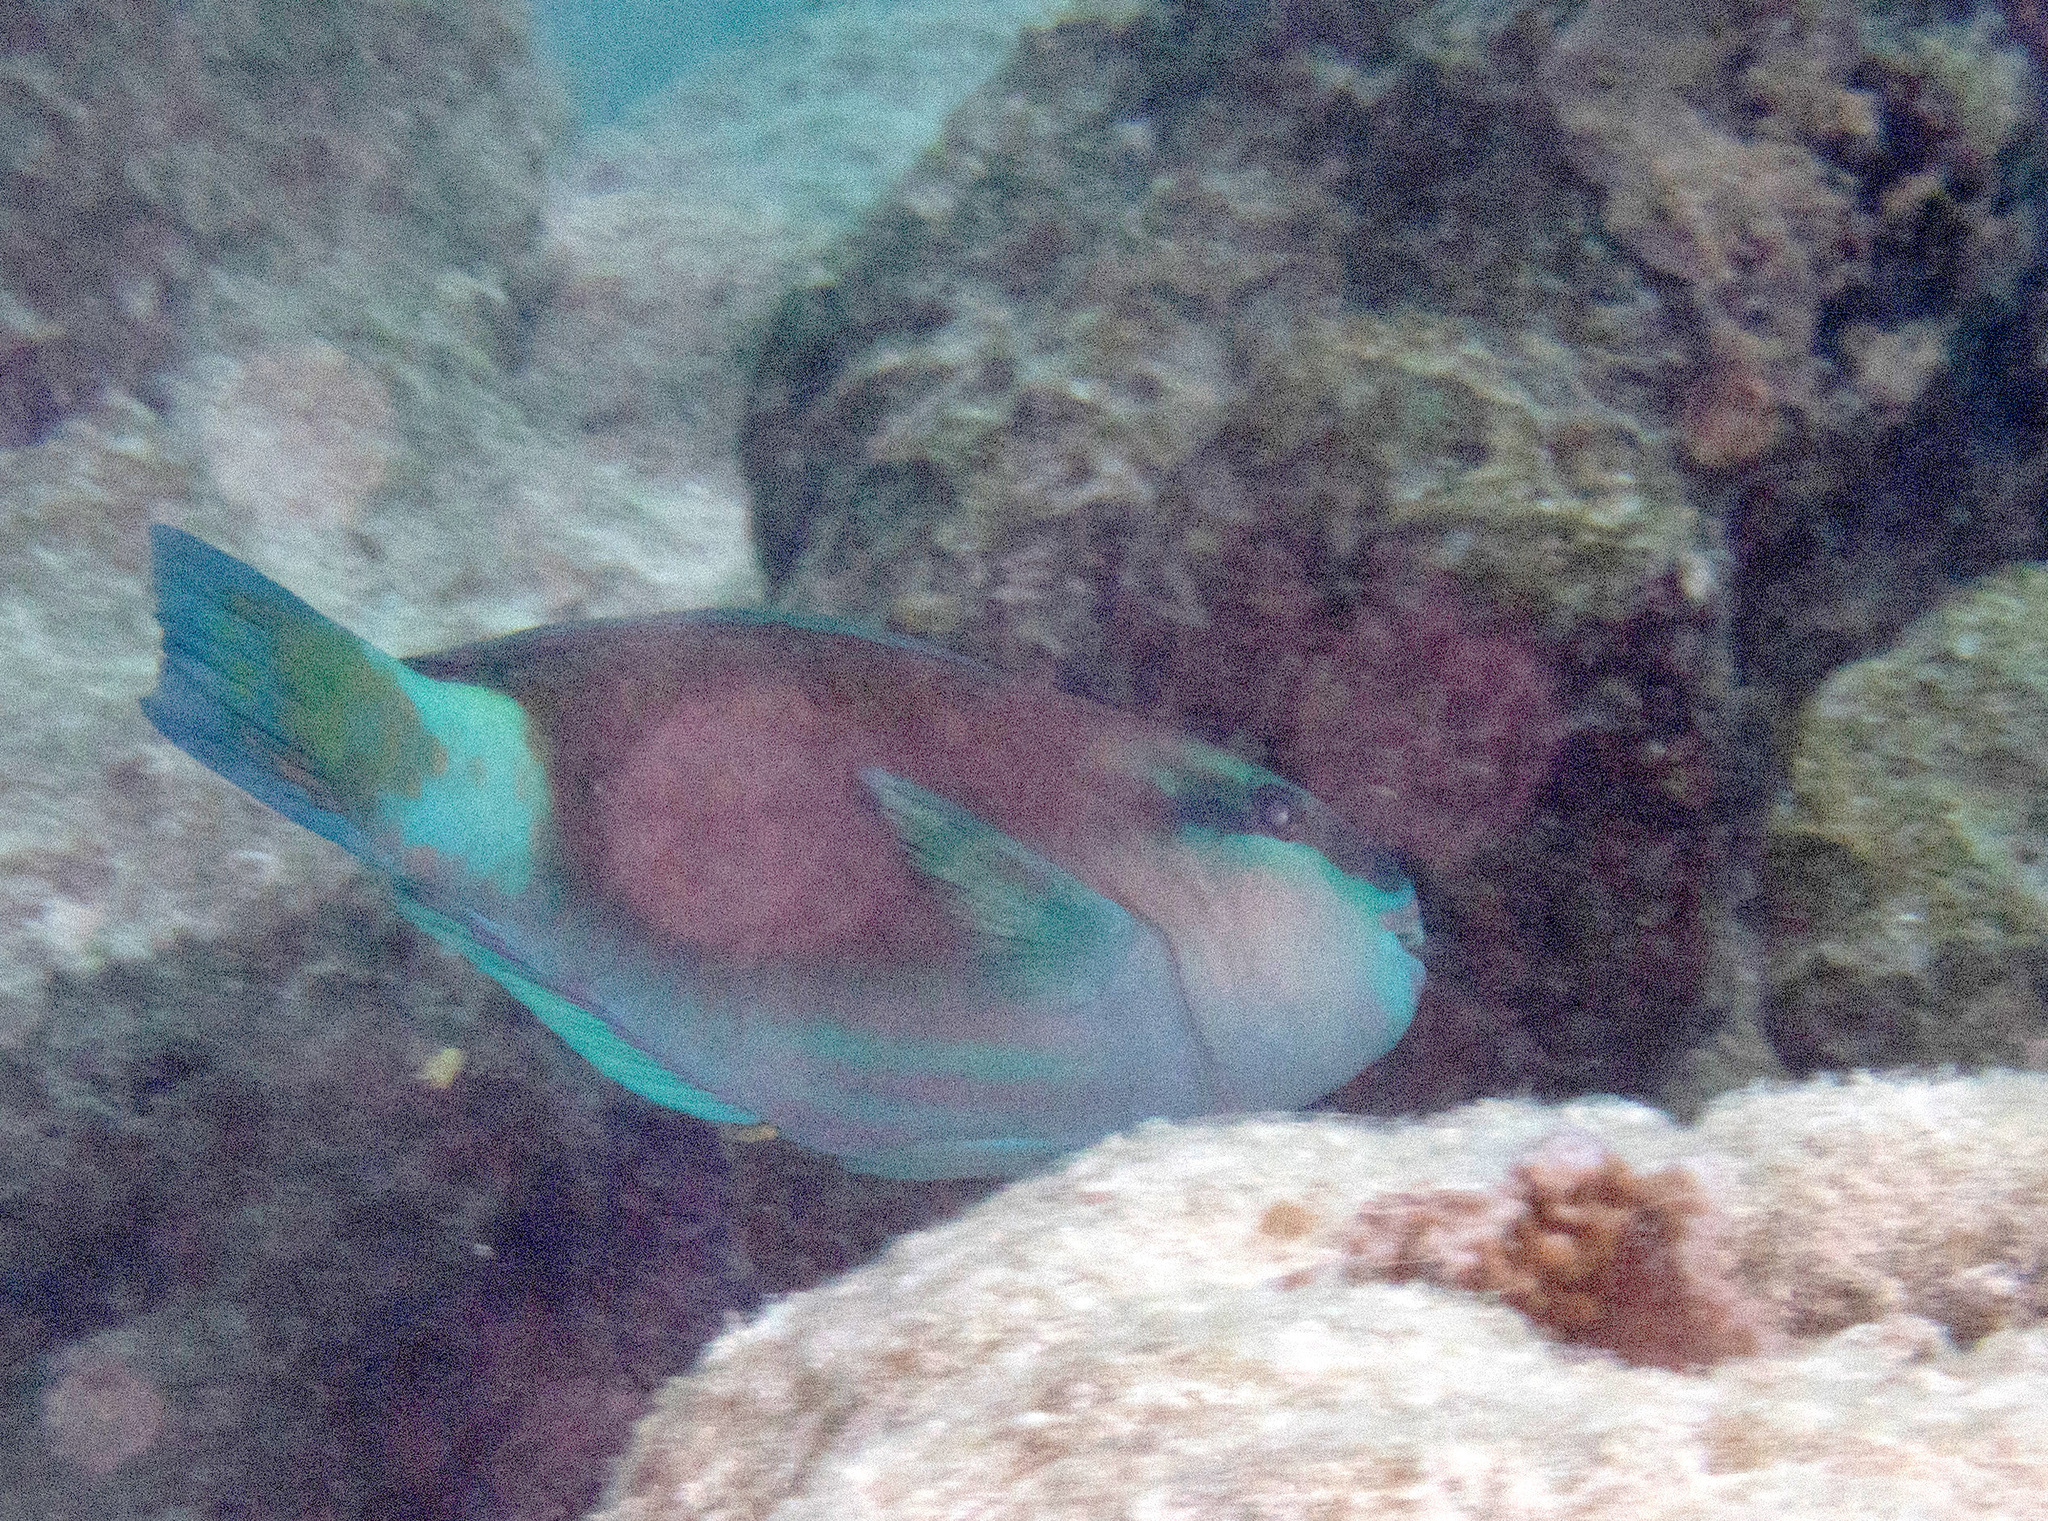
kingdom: Animalia
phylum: Chordata
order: Perciformes
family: Scaridae
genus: Chlorurus
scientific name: Chlorurus spilurus
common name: Bullethead parrotfish
